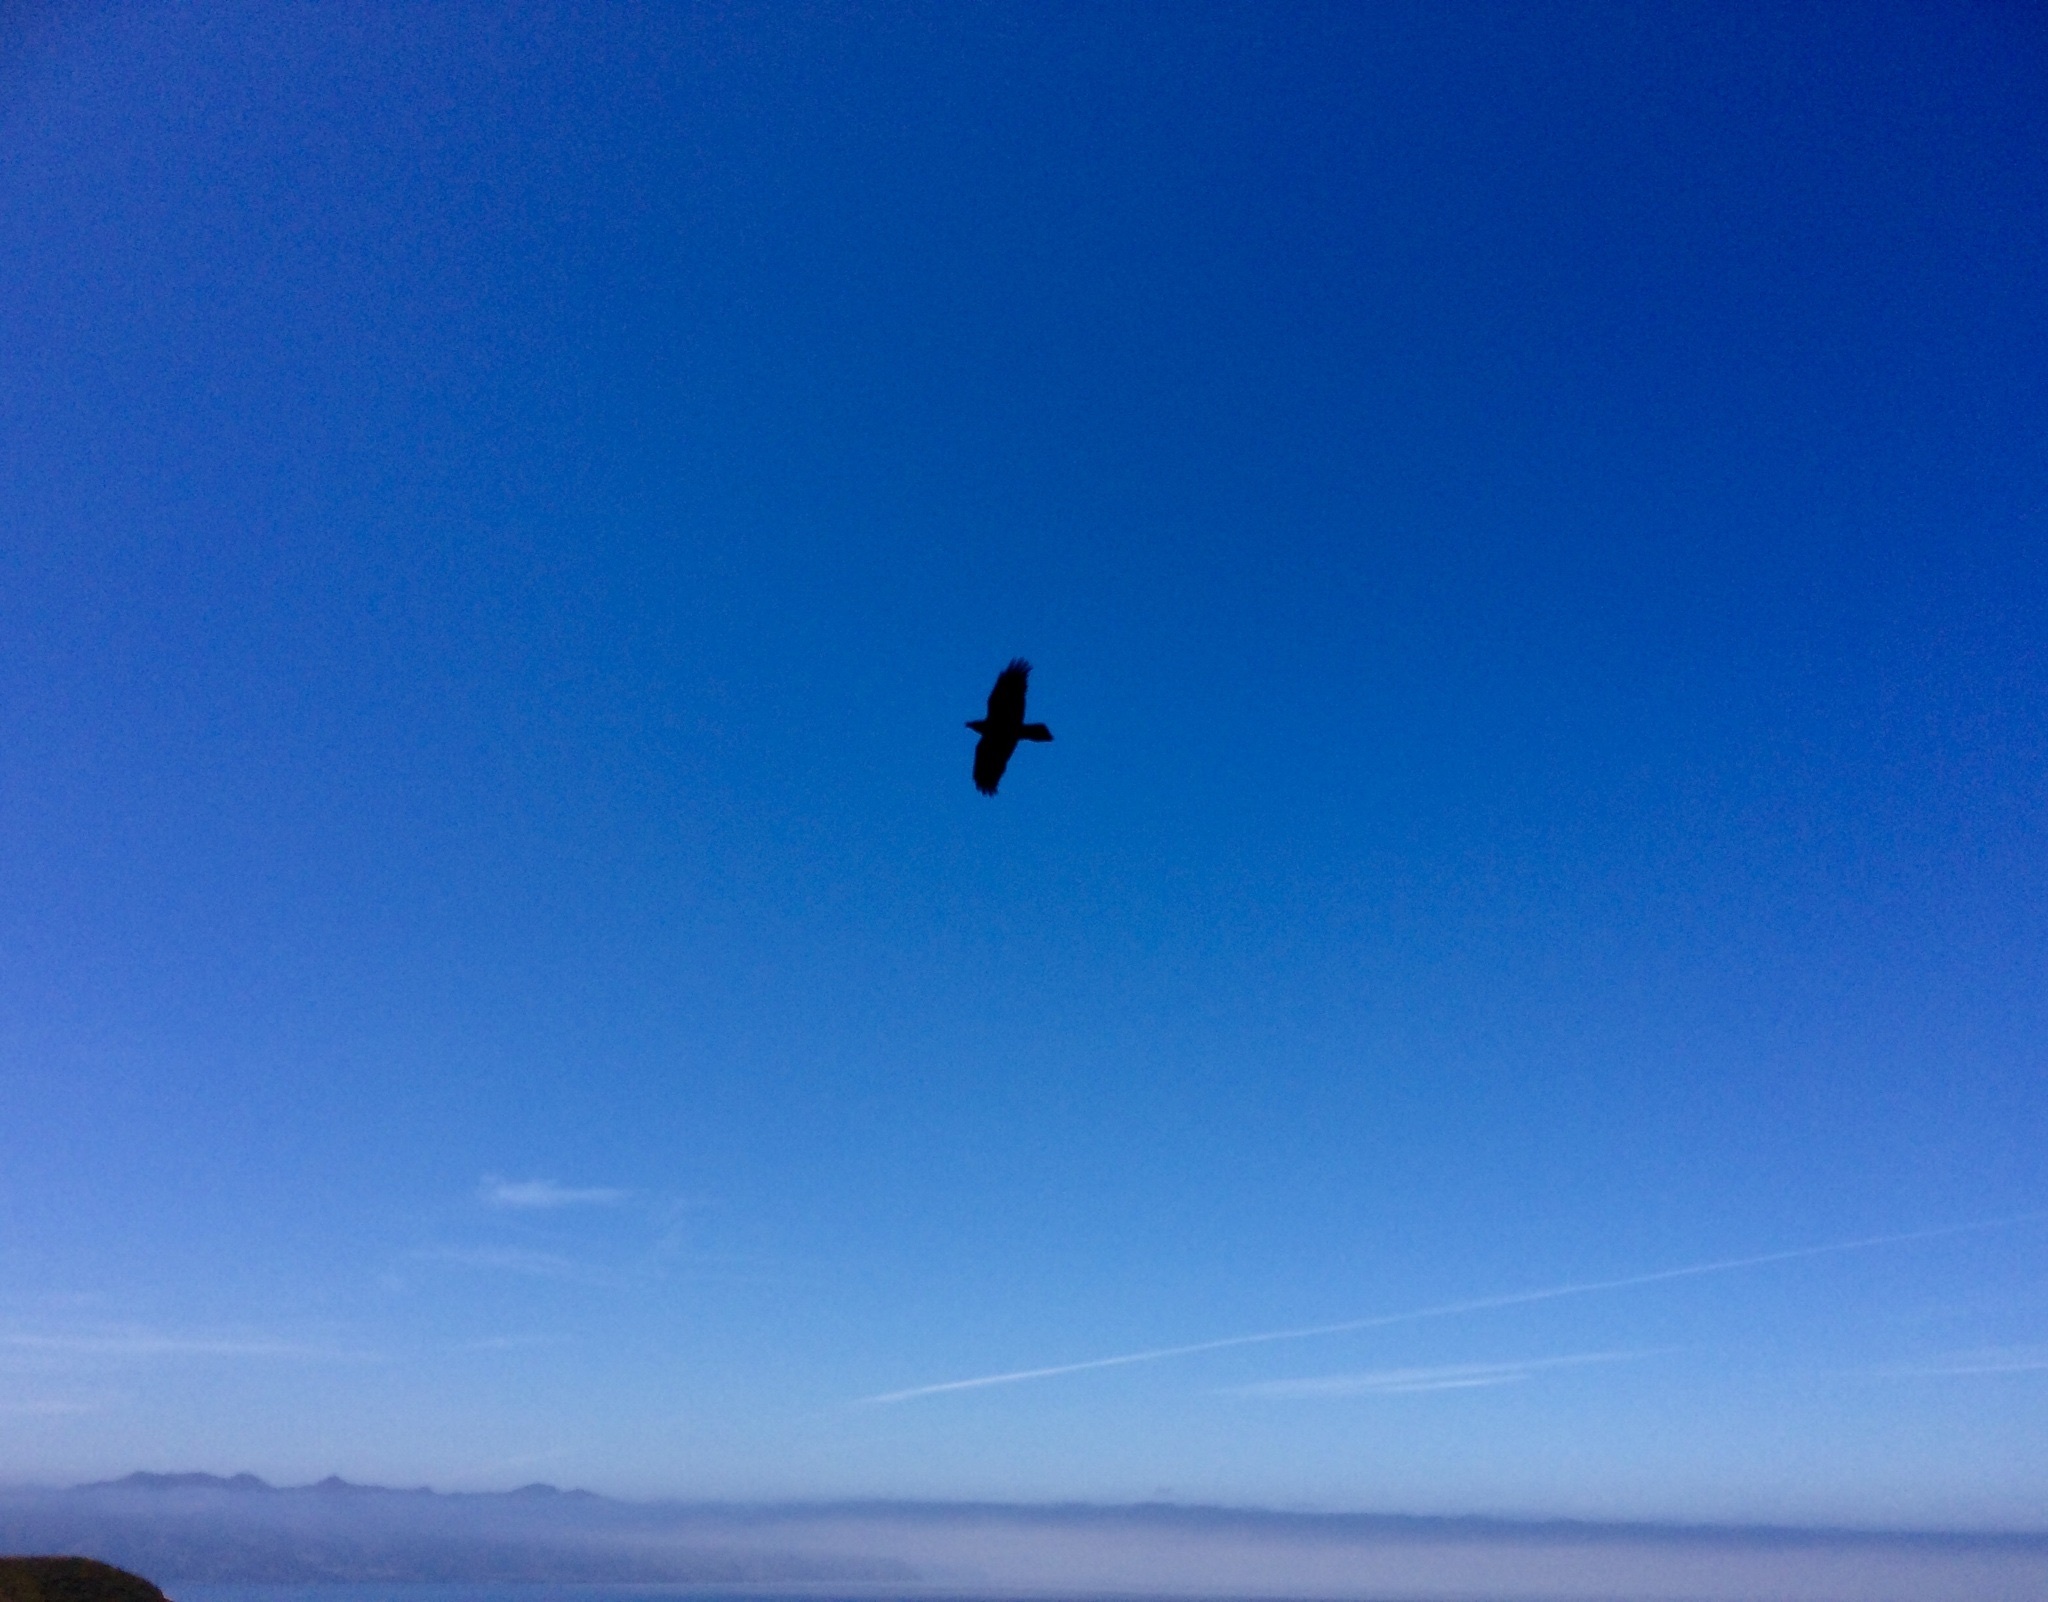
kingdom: Animalia
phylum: Chordata
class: Aves
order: Passeriformes
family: Corvidae
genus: Corvus
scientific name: Corvus corax
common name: Common raven
